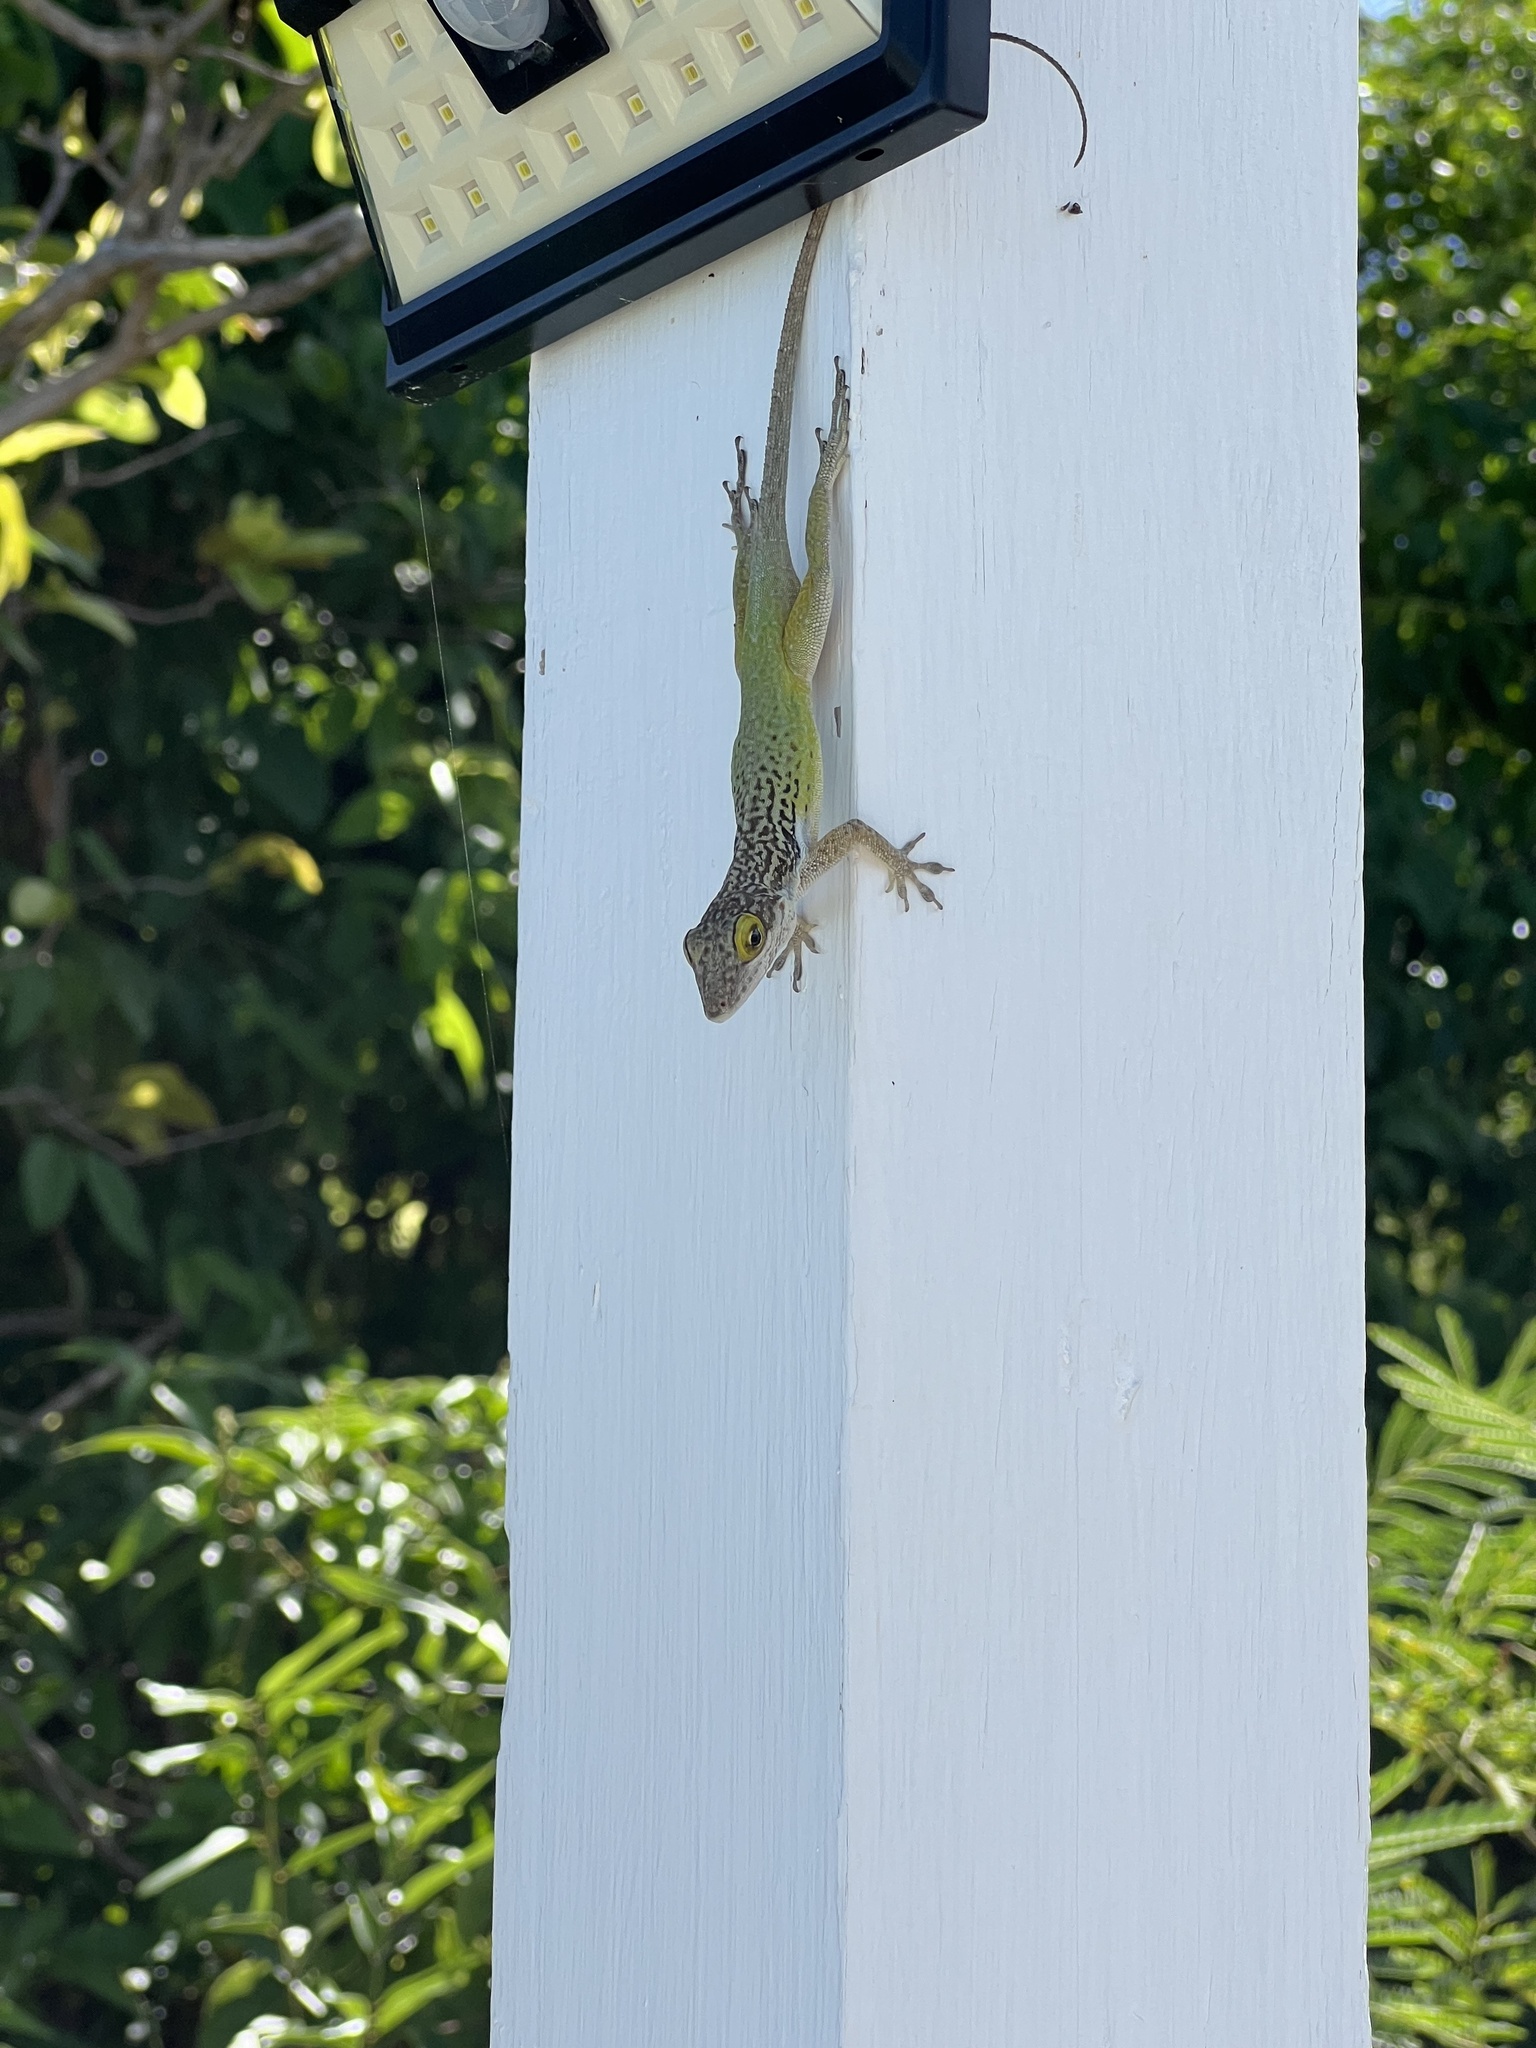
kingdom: Animalia
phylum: Chordata
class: Squamata
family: Dactyloidae
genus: Anolis
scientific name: Anolis leachii
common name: Barbuda bank tree anole
